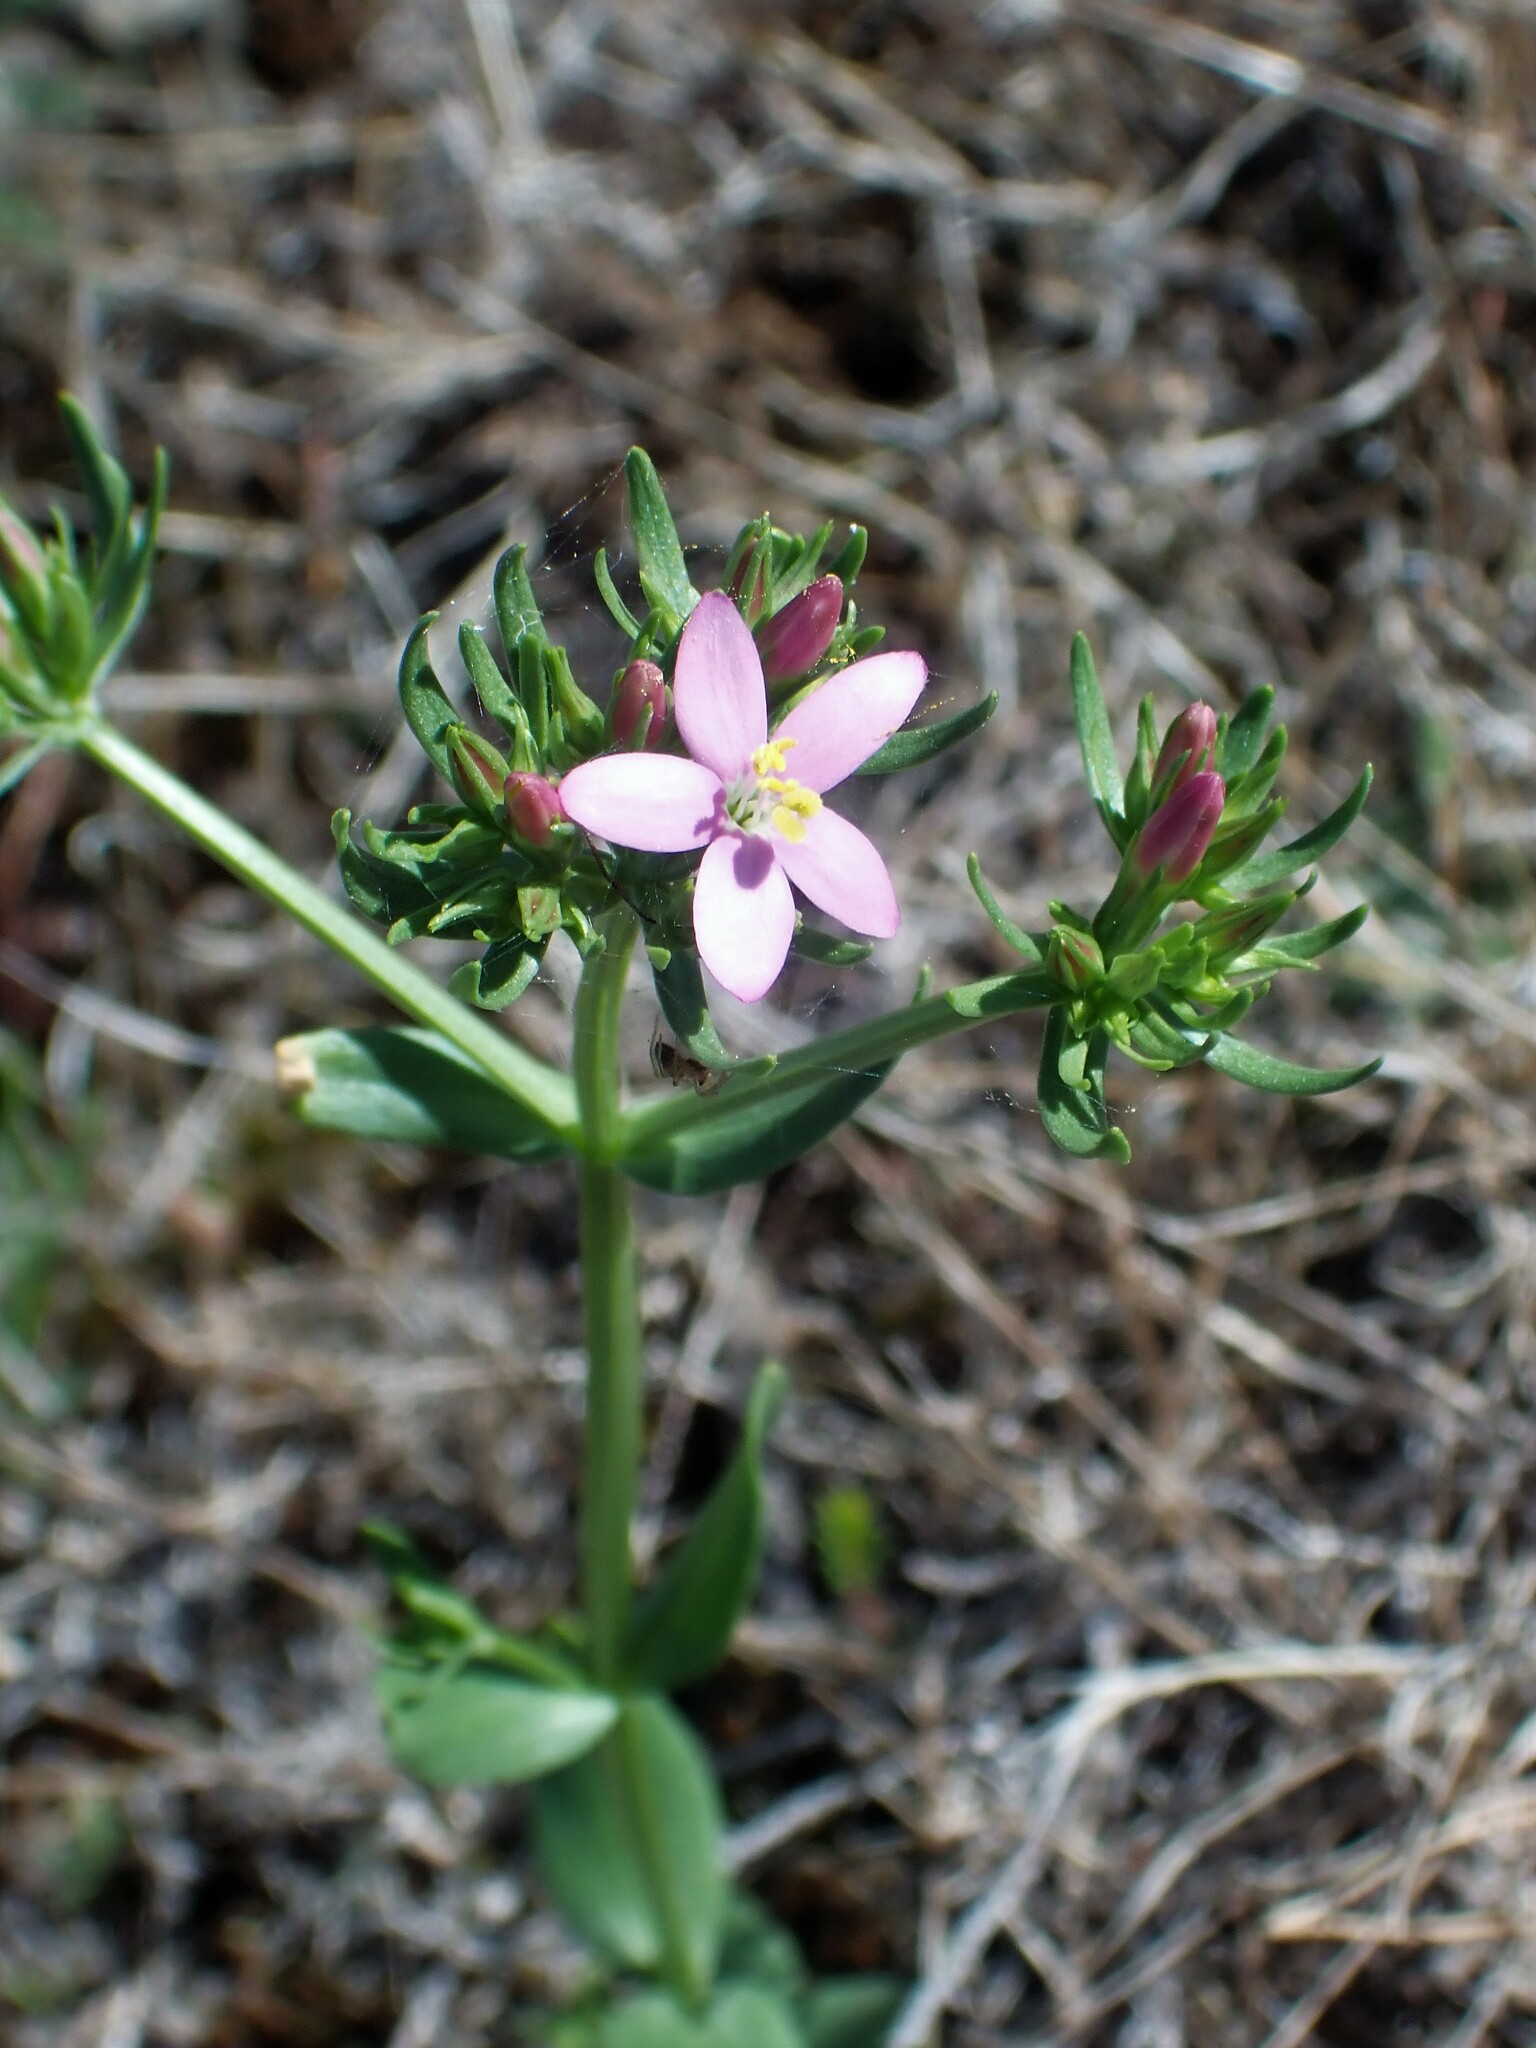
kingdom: Plantae
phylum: Tracheophyta
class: Magnoliopsida
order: Gentianales
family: Gentianaceae
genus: Centaurium
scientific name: Centaurium grandiflorum
